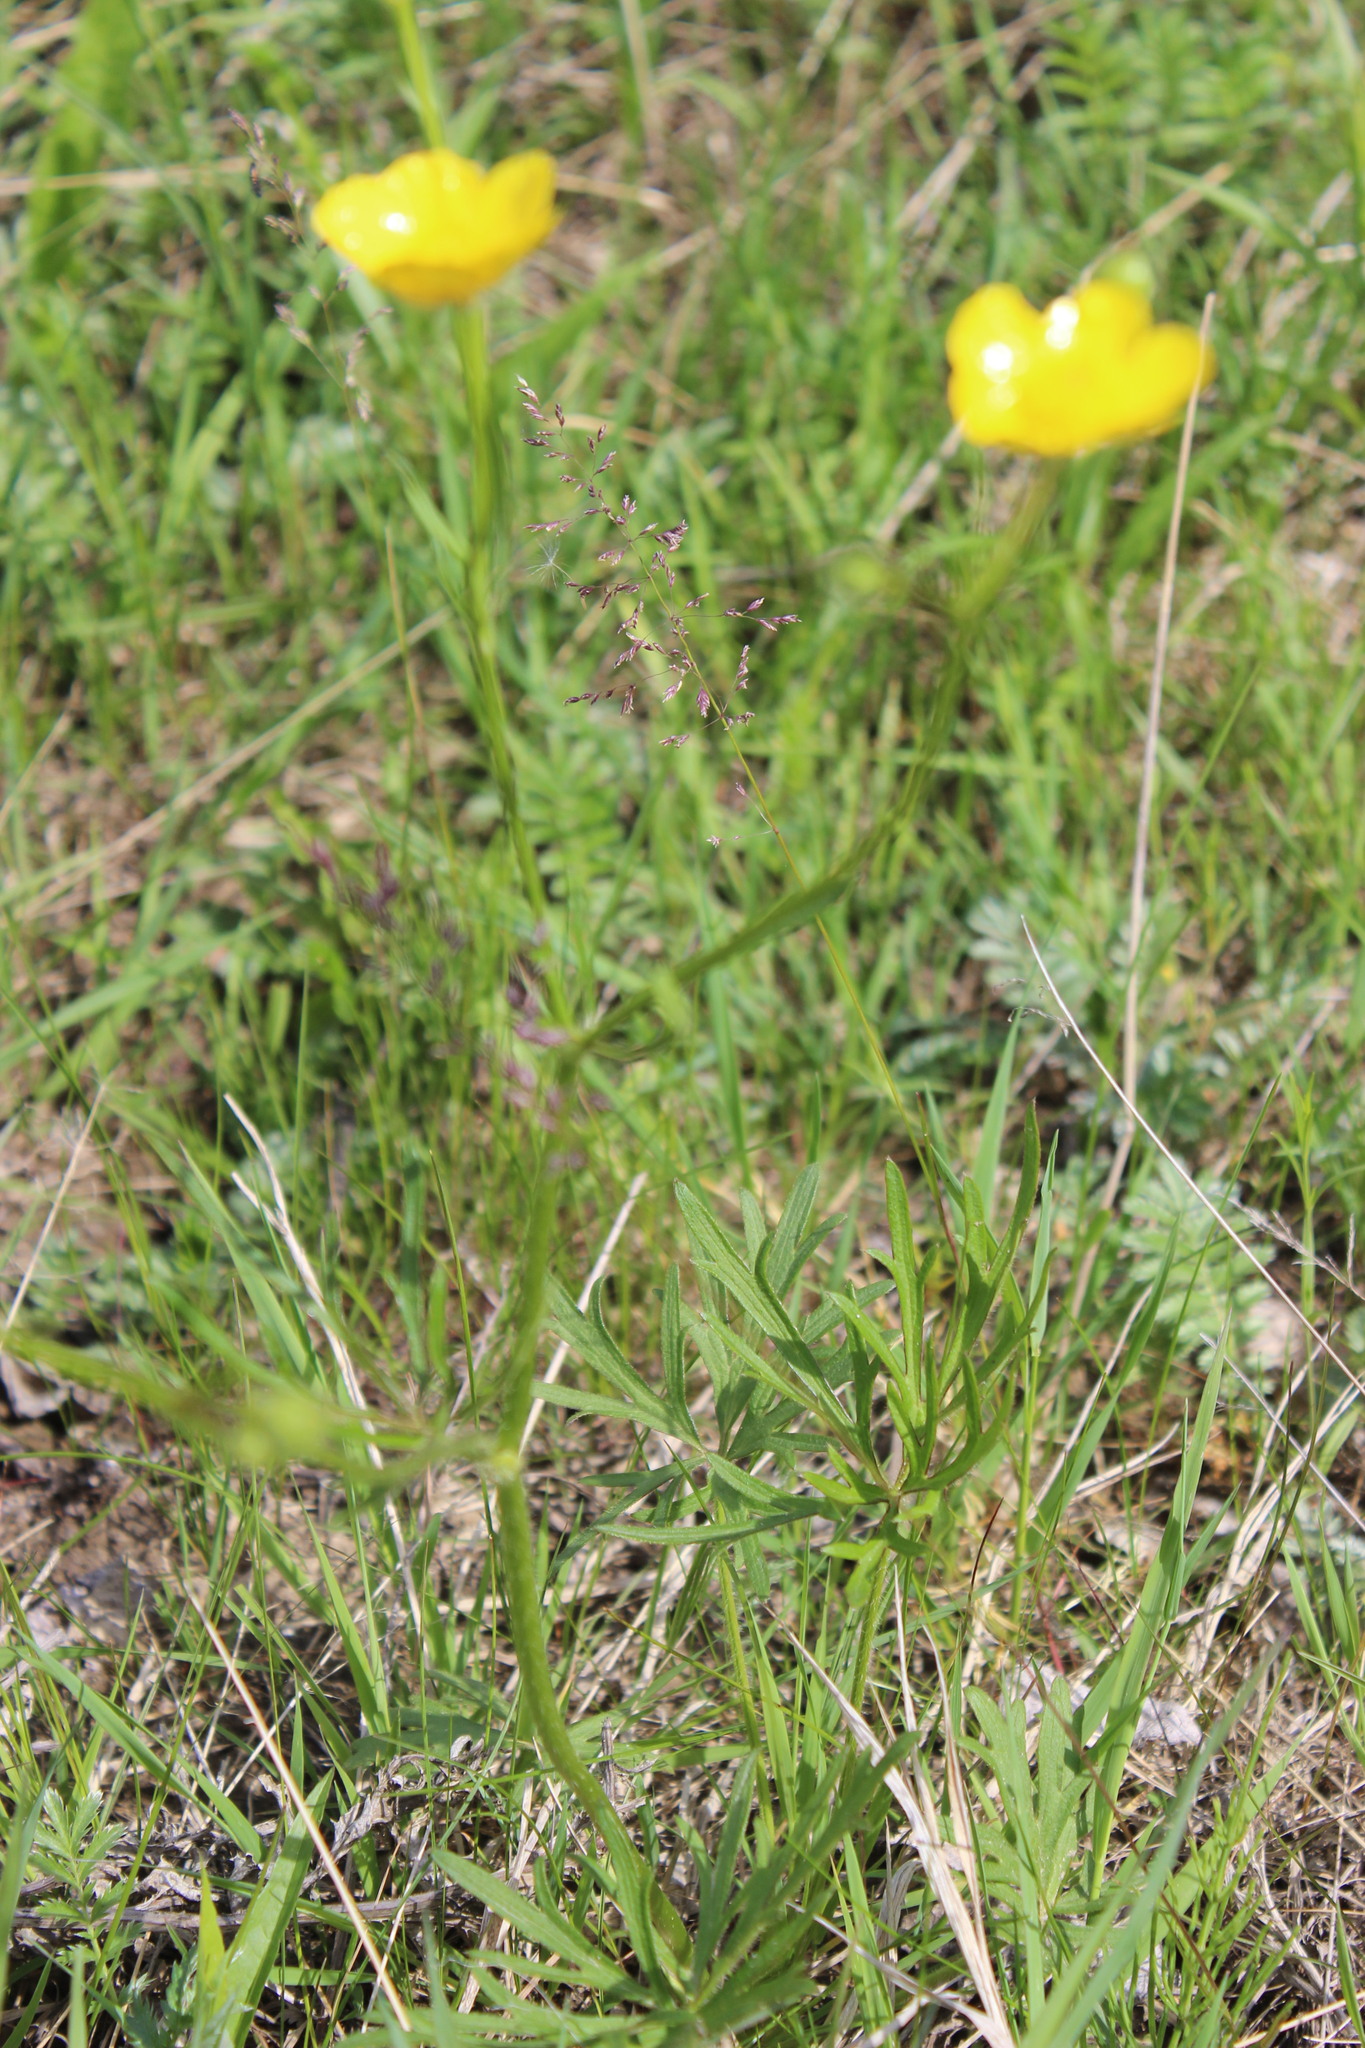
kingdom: Plantae
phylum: Tracheophyta
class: Magnoliopsida
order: Ranunculales
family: Ranunculaceae
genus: Ranunculus
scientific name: Ranunculus polyanthemos
